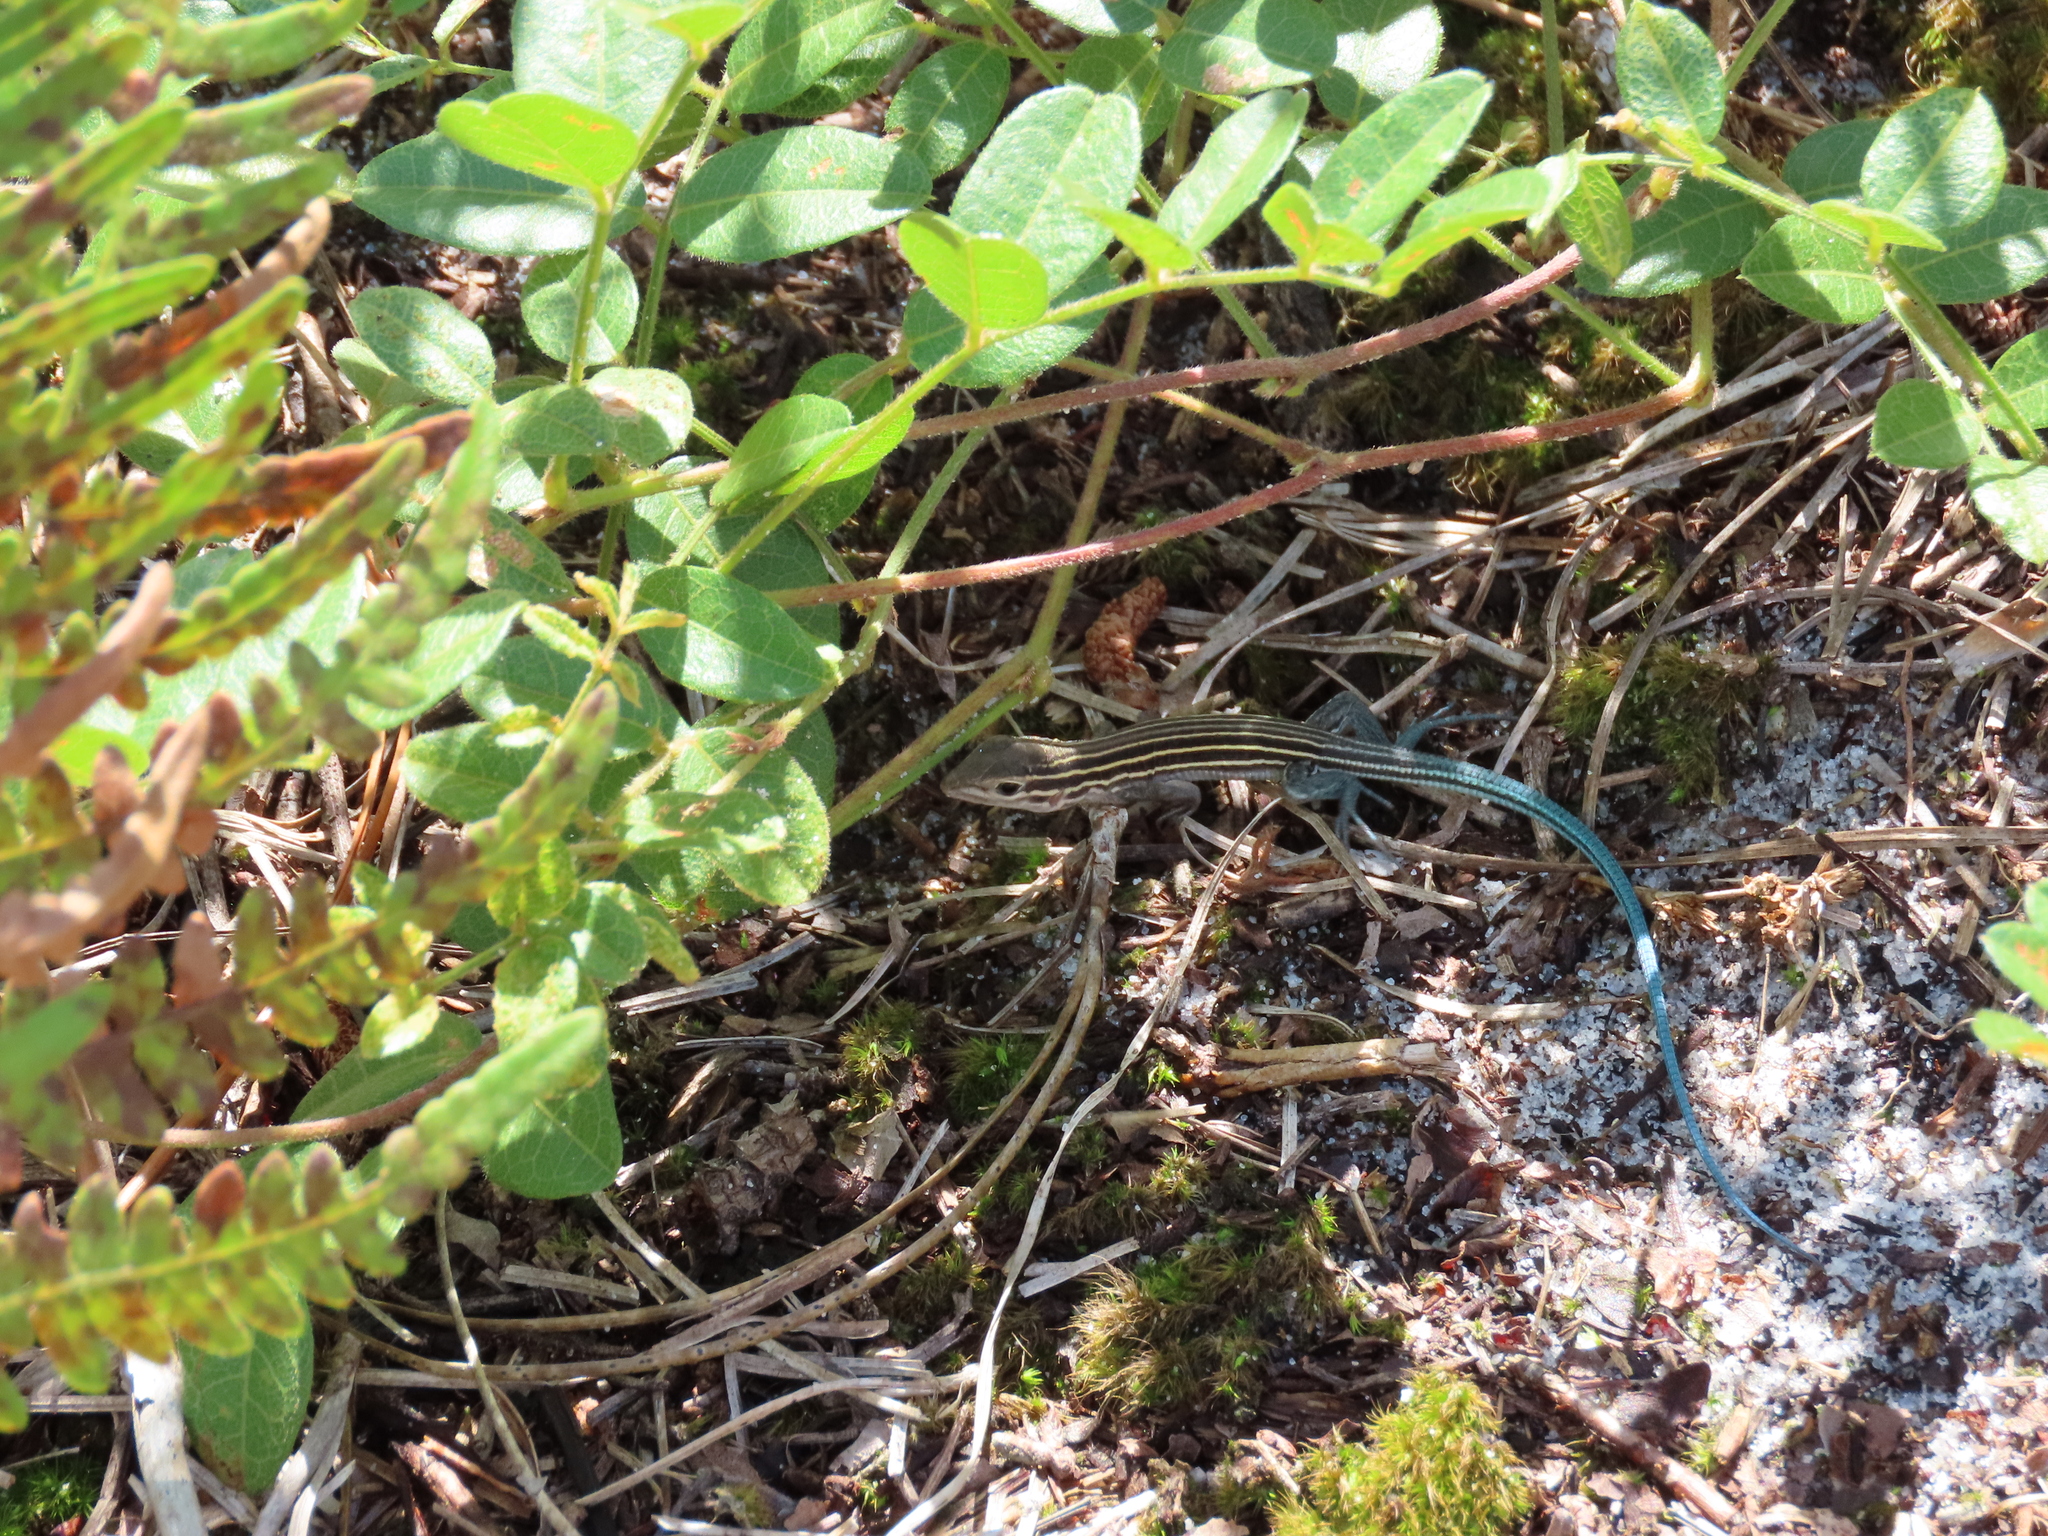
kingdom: Animalia
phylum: Chordata
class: Squamata
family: Teiidae
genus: Aspidoscelis
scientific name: Aspidoscelis sexlineatus
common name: Six-lined racerunner
